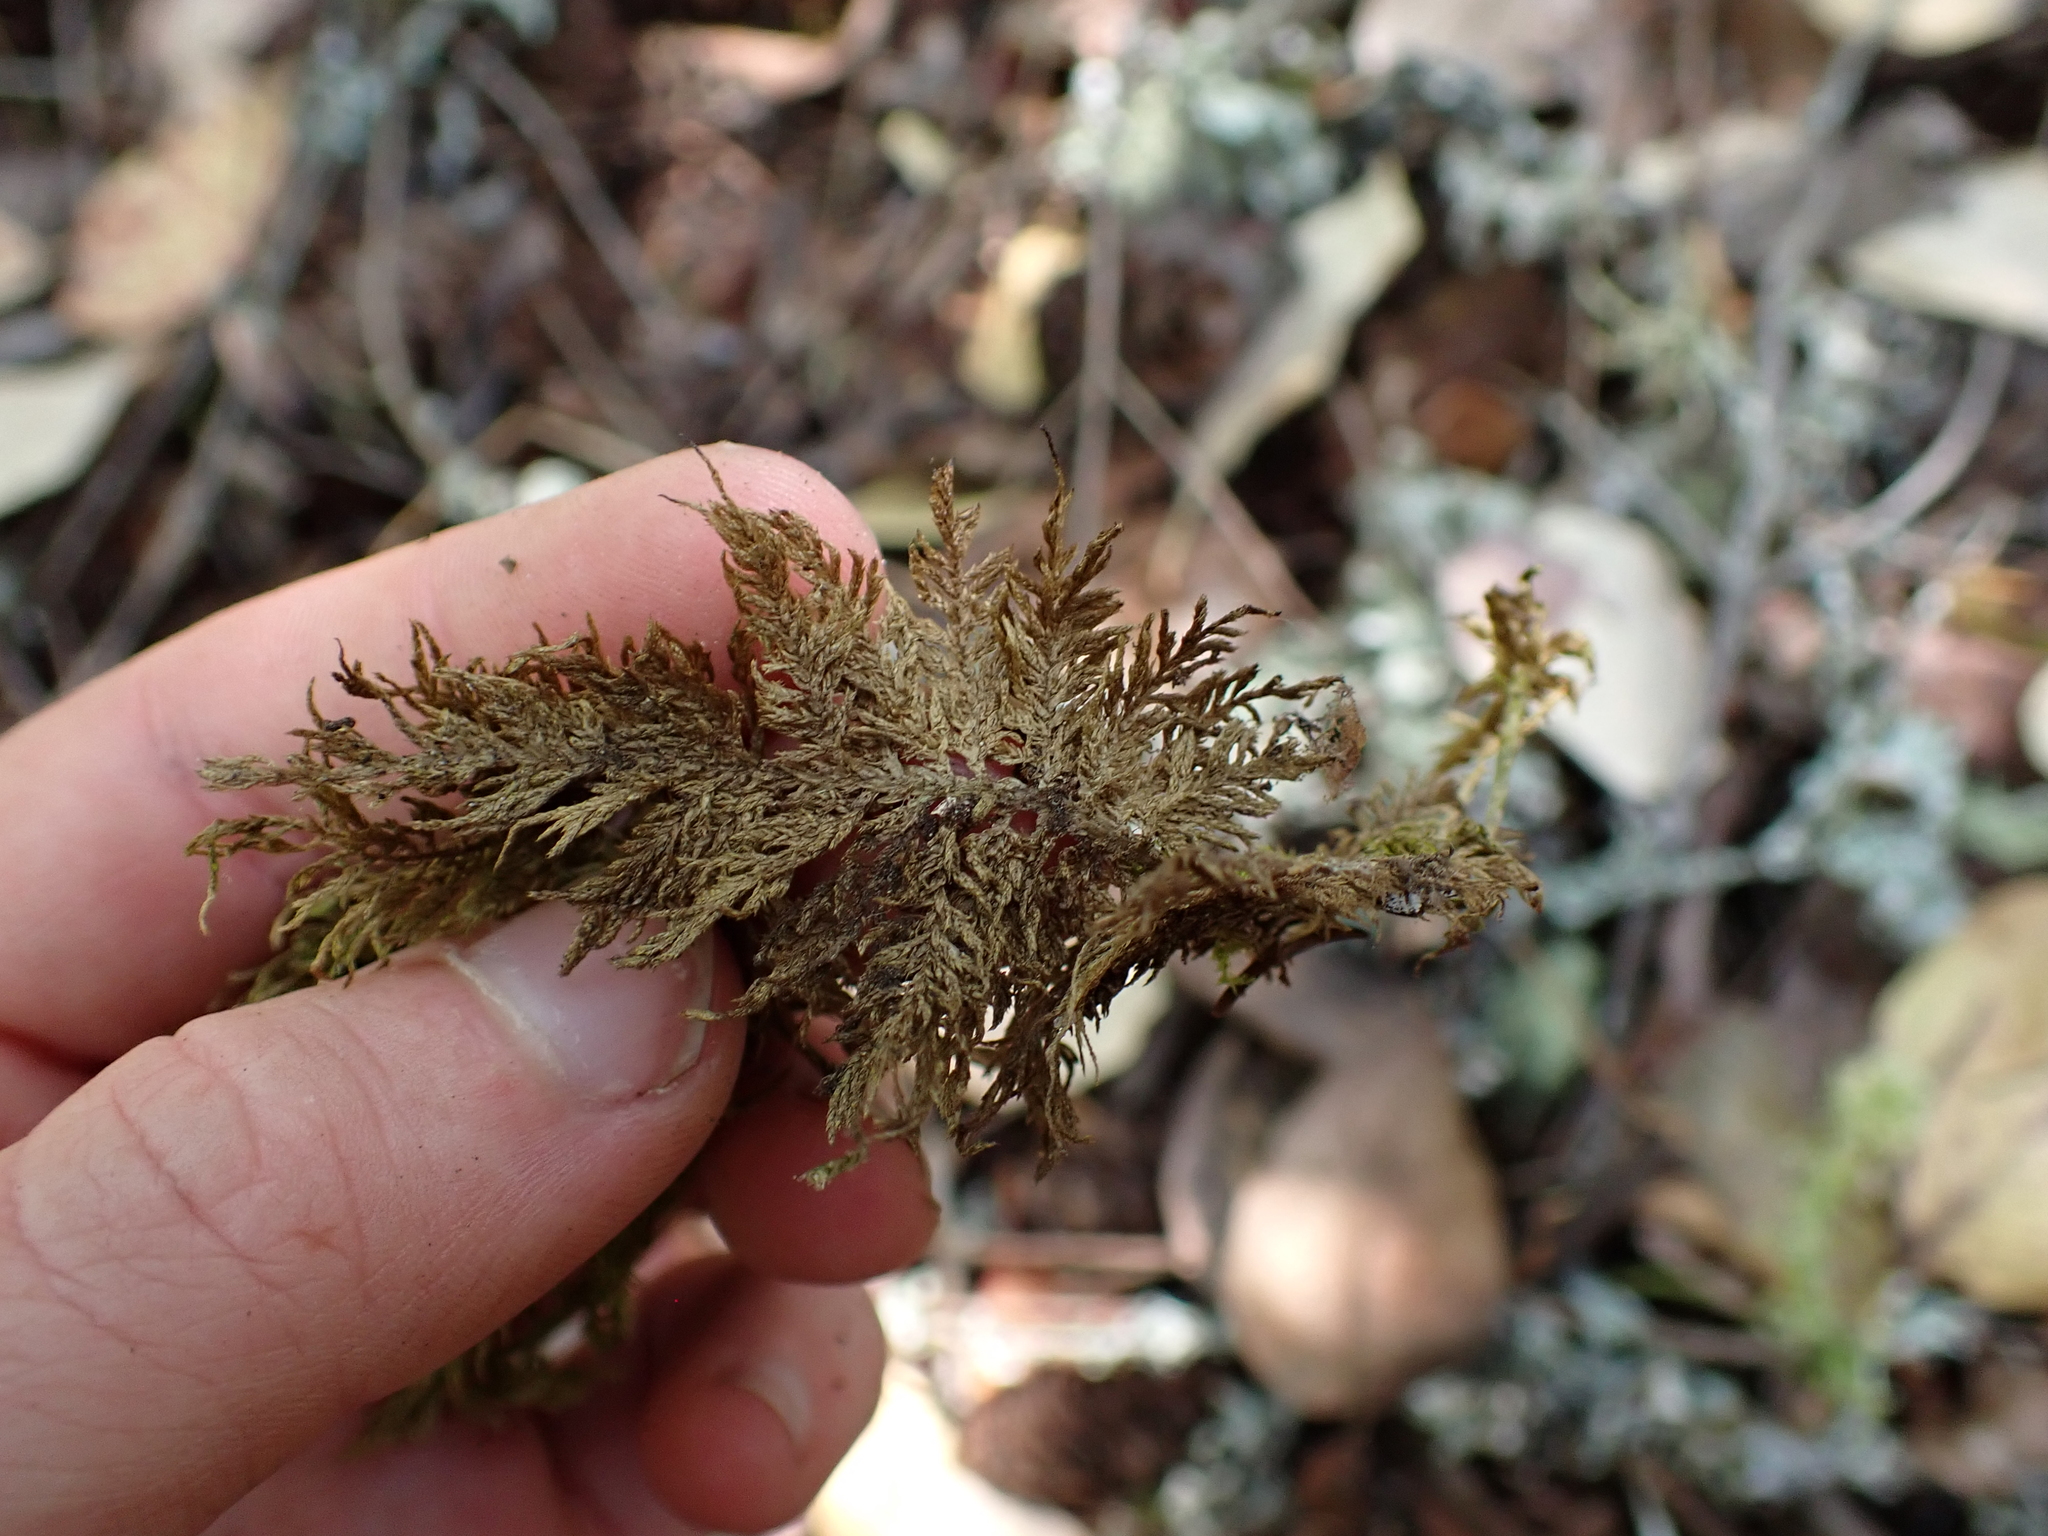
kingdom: Plantae
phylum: Bryophyta
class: Bryopsida
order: Hypnales
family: Hylocomiaceae
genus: Hylocomium
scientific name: Hylocomium splendens
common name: Stairstep moss
